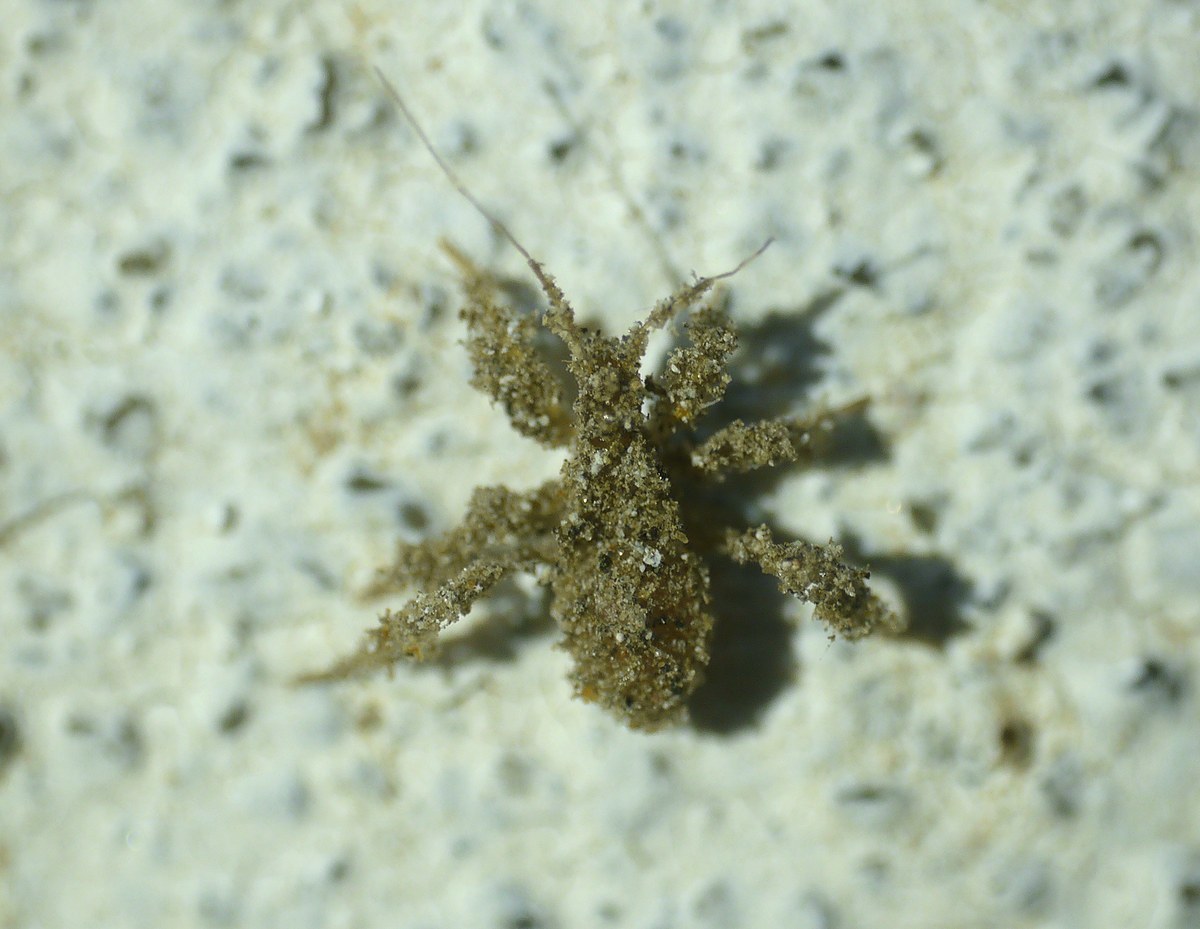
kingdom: Animalia
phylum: Arthropoda
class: Insecta
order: Hemiptera
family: Reduviidae
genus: Reduvius
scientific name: Reduvius personatus
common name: Masked hunter
